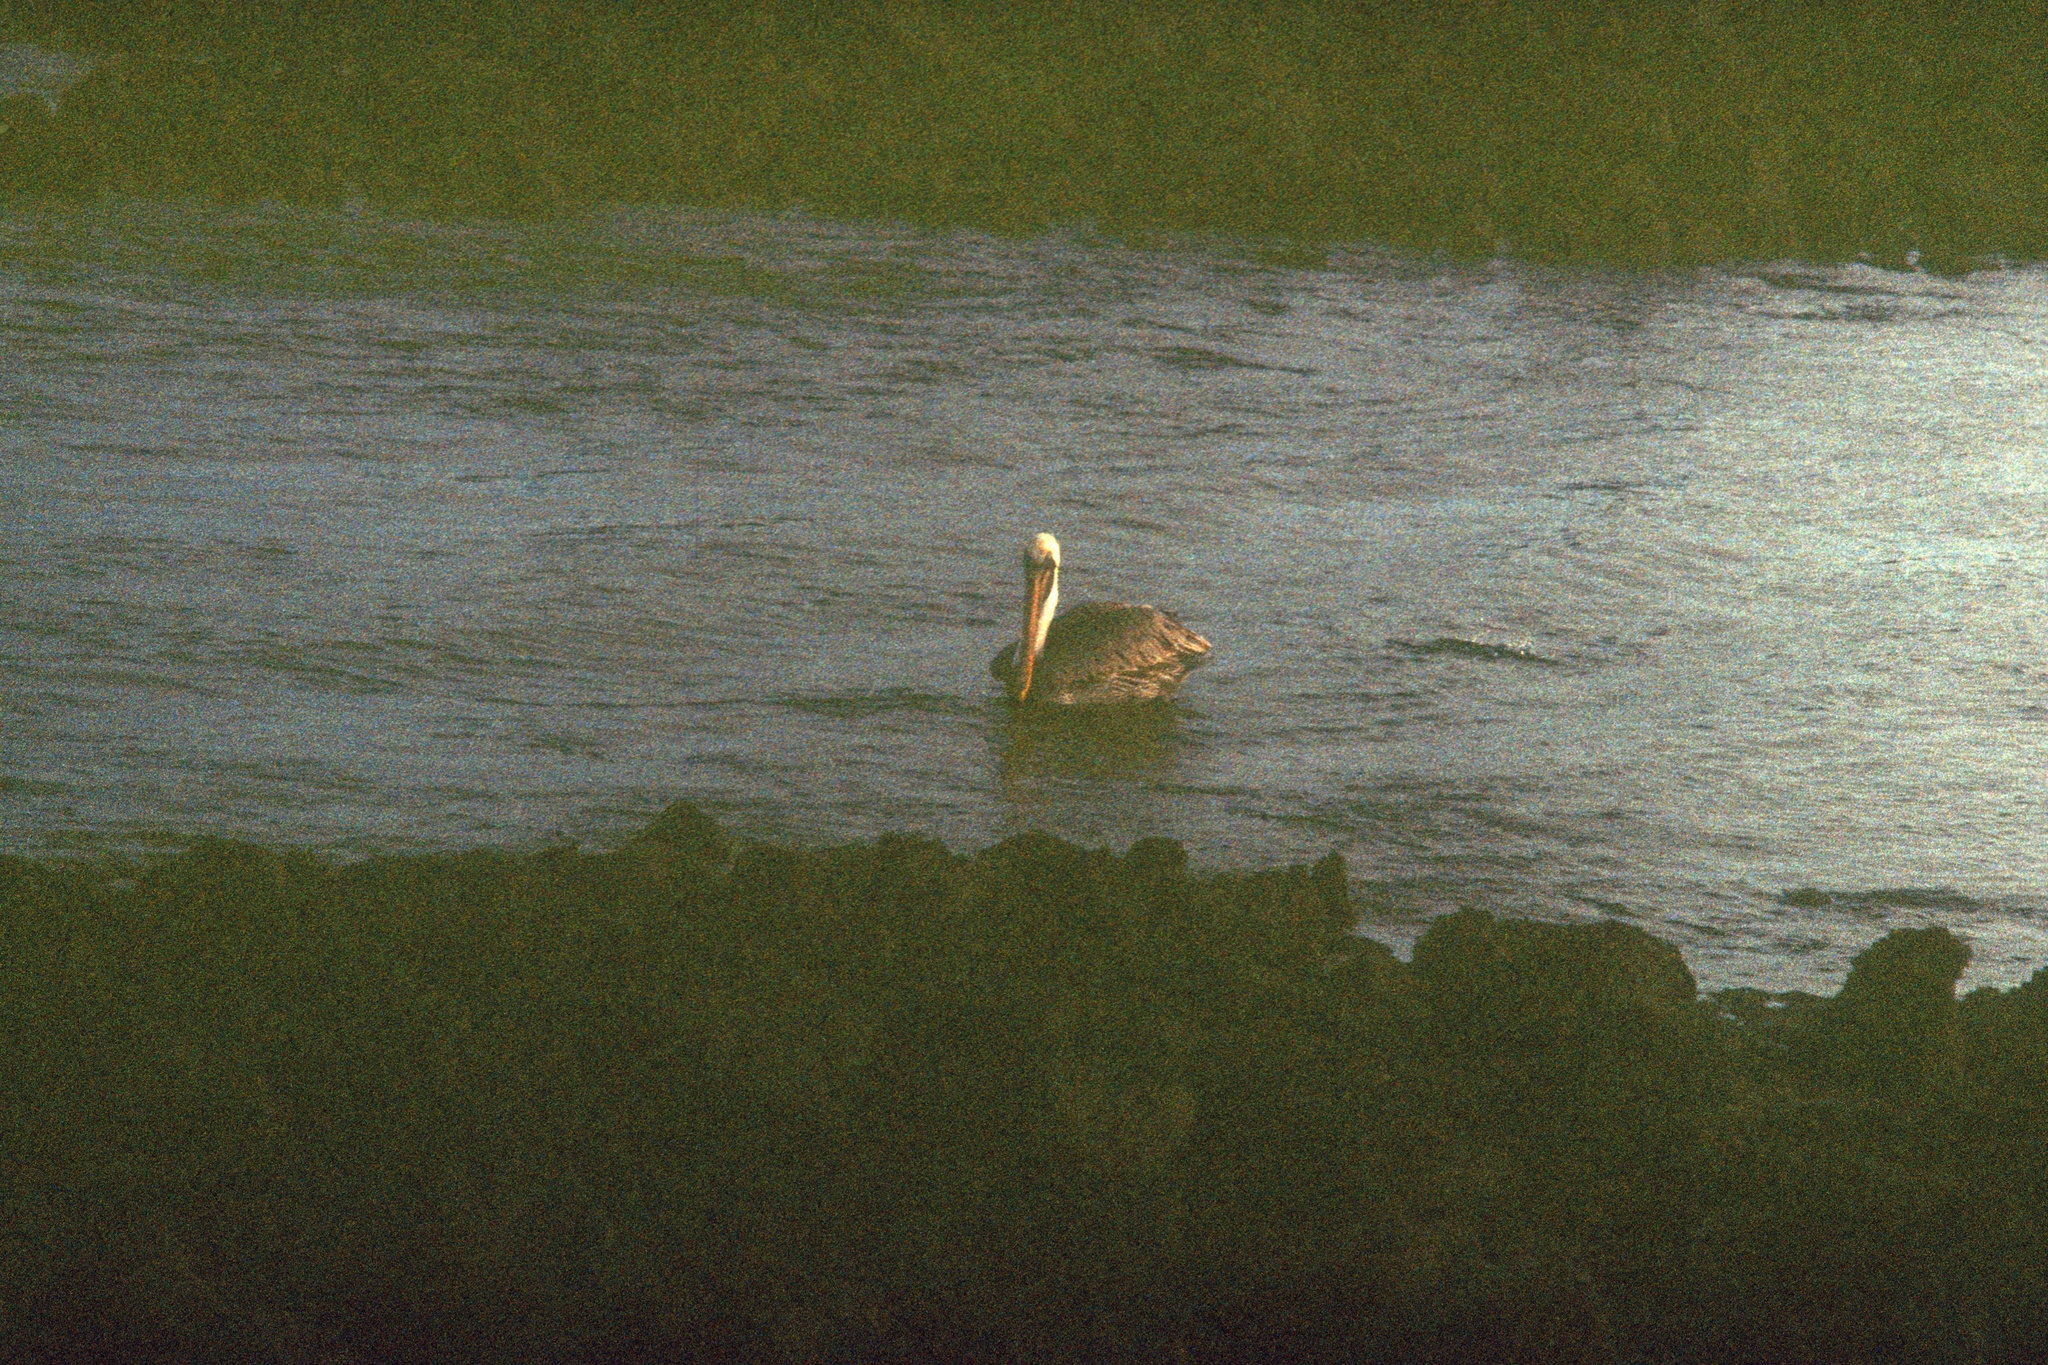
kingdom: Animalia
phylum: Chordata
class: Aves
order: Pelecaniformes
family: Pelecanidae
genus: Pelecanus
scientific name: Pelecanus occidentalis
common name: Brown pelican
